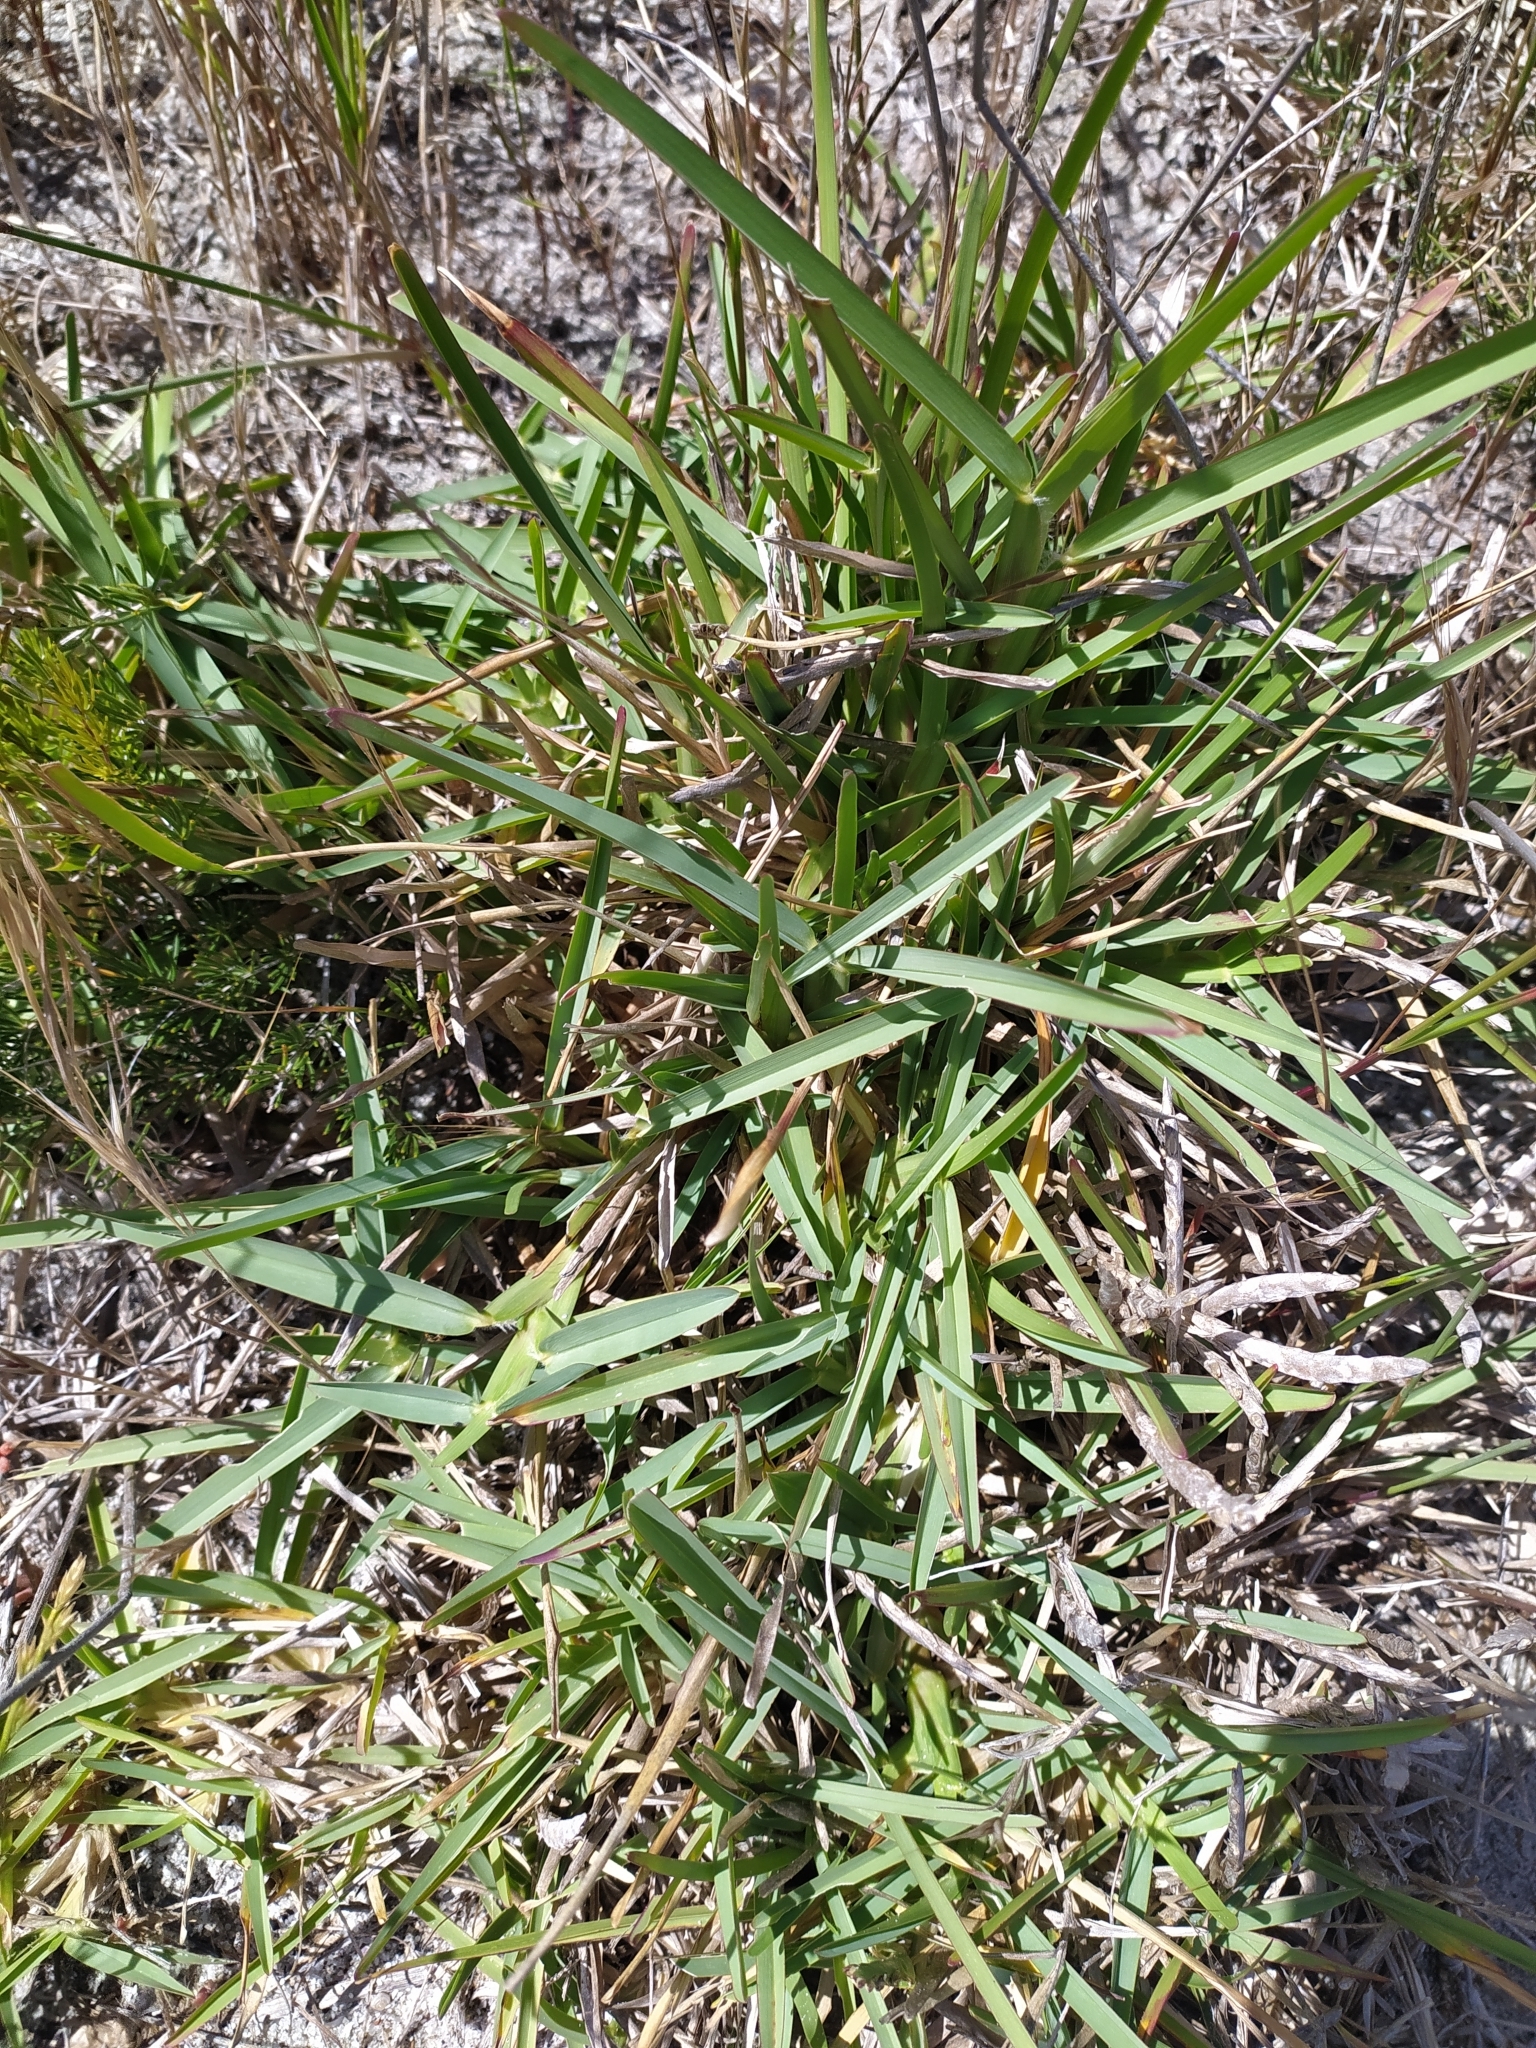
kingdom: Plantae
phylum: Tracheophyta
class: Liliopsida
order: Poales
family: Poaceae
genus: Stenotaphrum
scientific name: Stenotaphrum secundatum
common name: St. augustine grass
